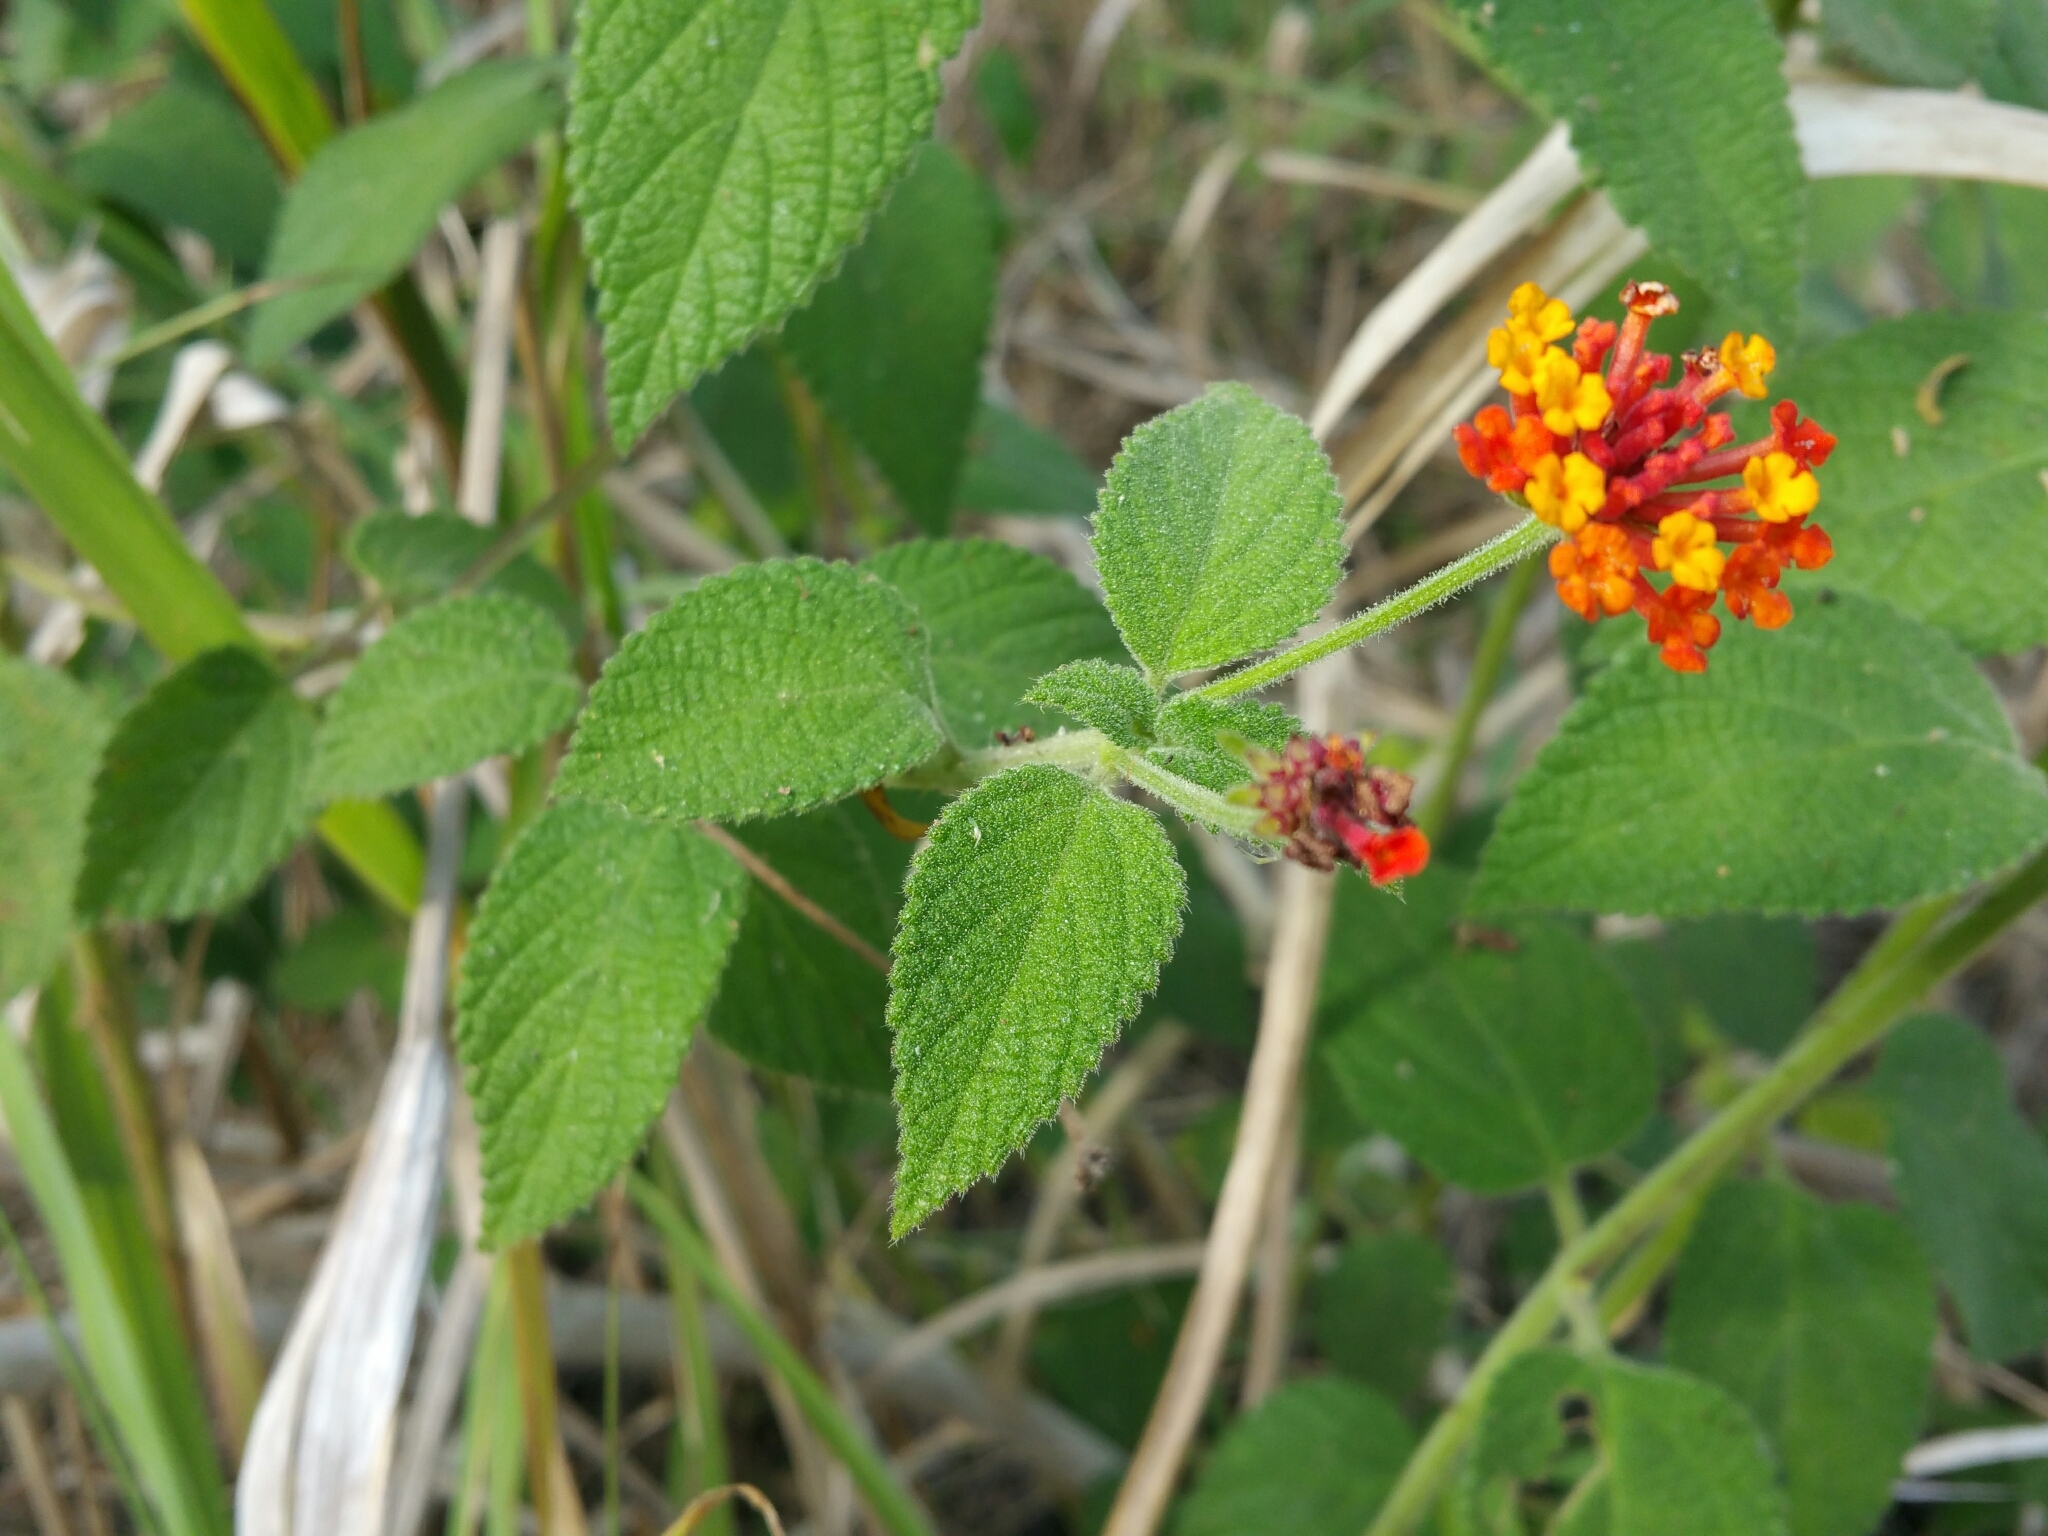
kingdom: Plantae
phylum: Tracheophyta
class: Magnoliopsida
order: Lamiales
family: Verbenaceae
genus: Lantana
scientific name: Lantana camara
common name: Lantana
